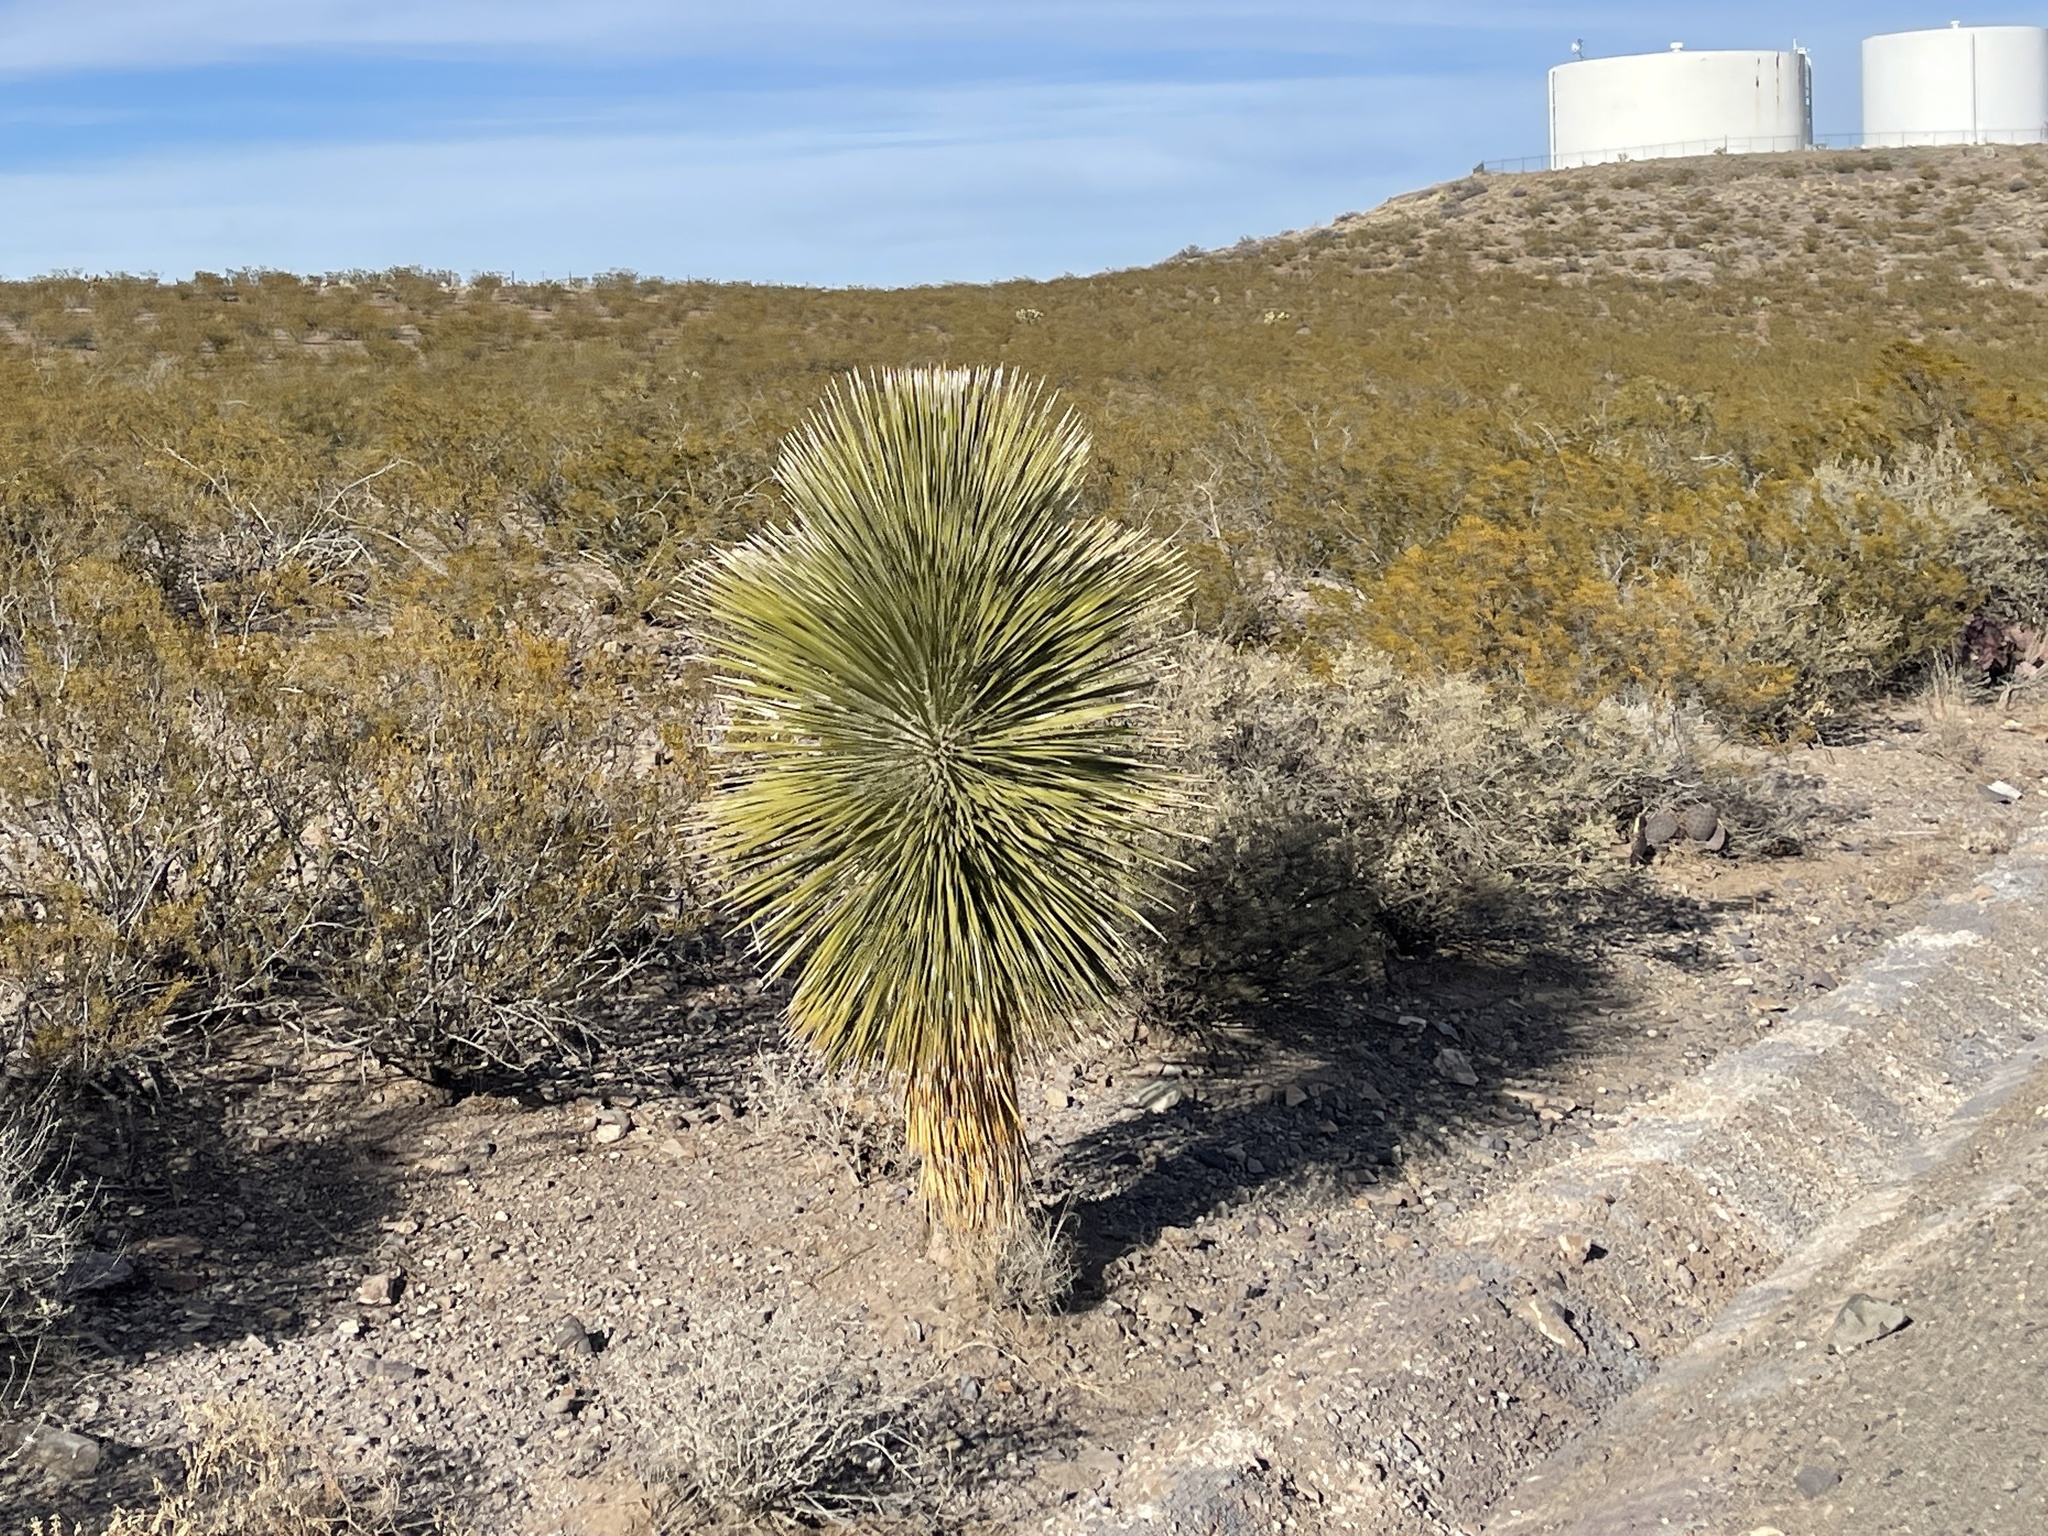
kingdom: Plantae
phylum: Tracheophyta
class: Liliopsida
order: Asparagales
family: Asparagaceae
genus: Yucca
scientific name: Yucca elata
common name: Palmella
